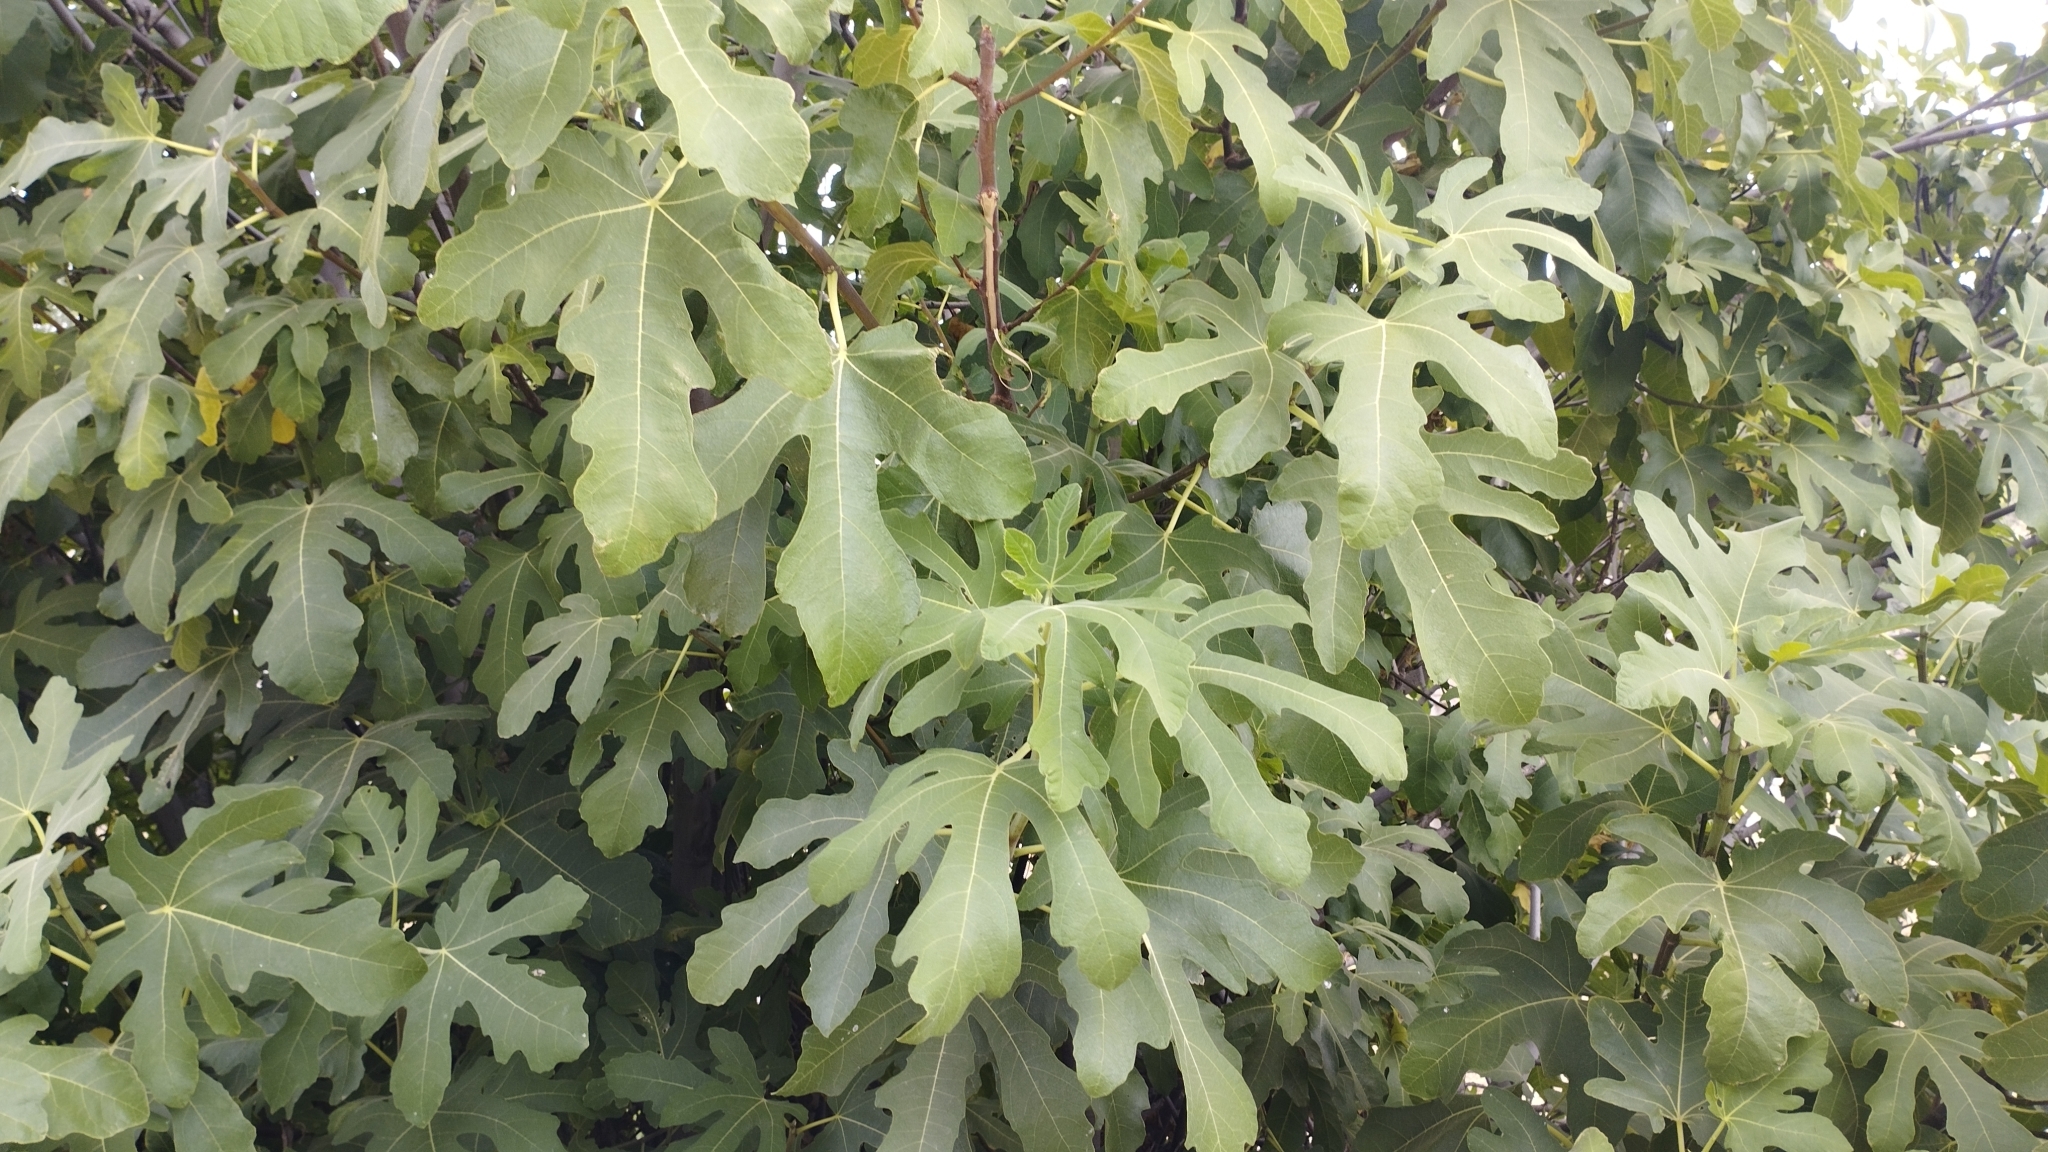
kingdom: Plantae
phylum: Tracheophyta
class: Magnoliopsida
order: Rosales
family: Moraceae
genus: Ficus
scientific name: Ficus carica
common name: Fig
